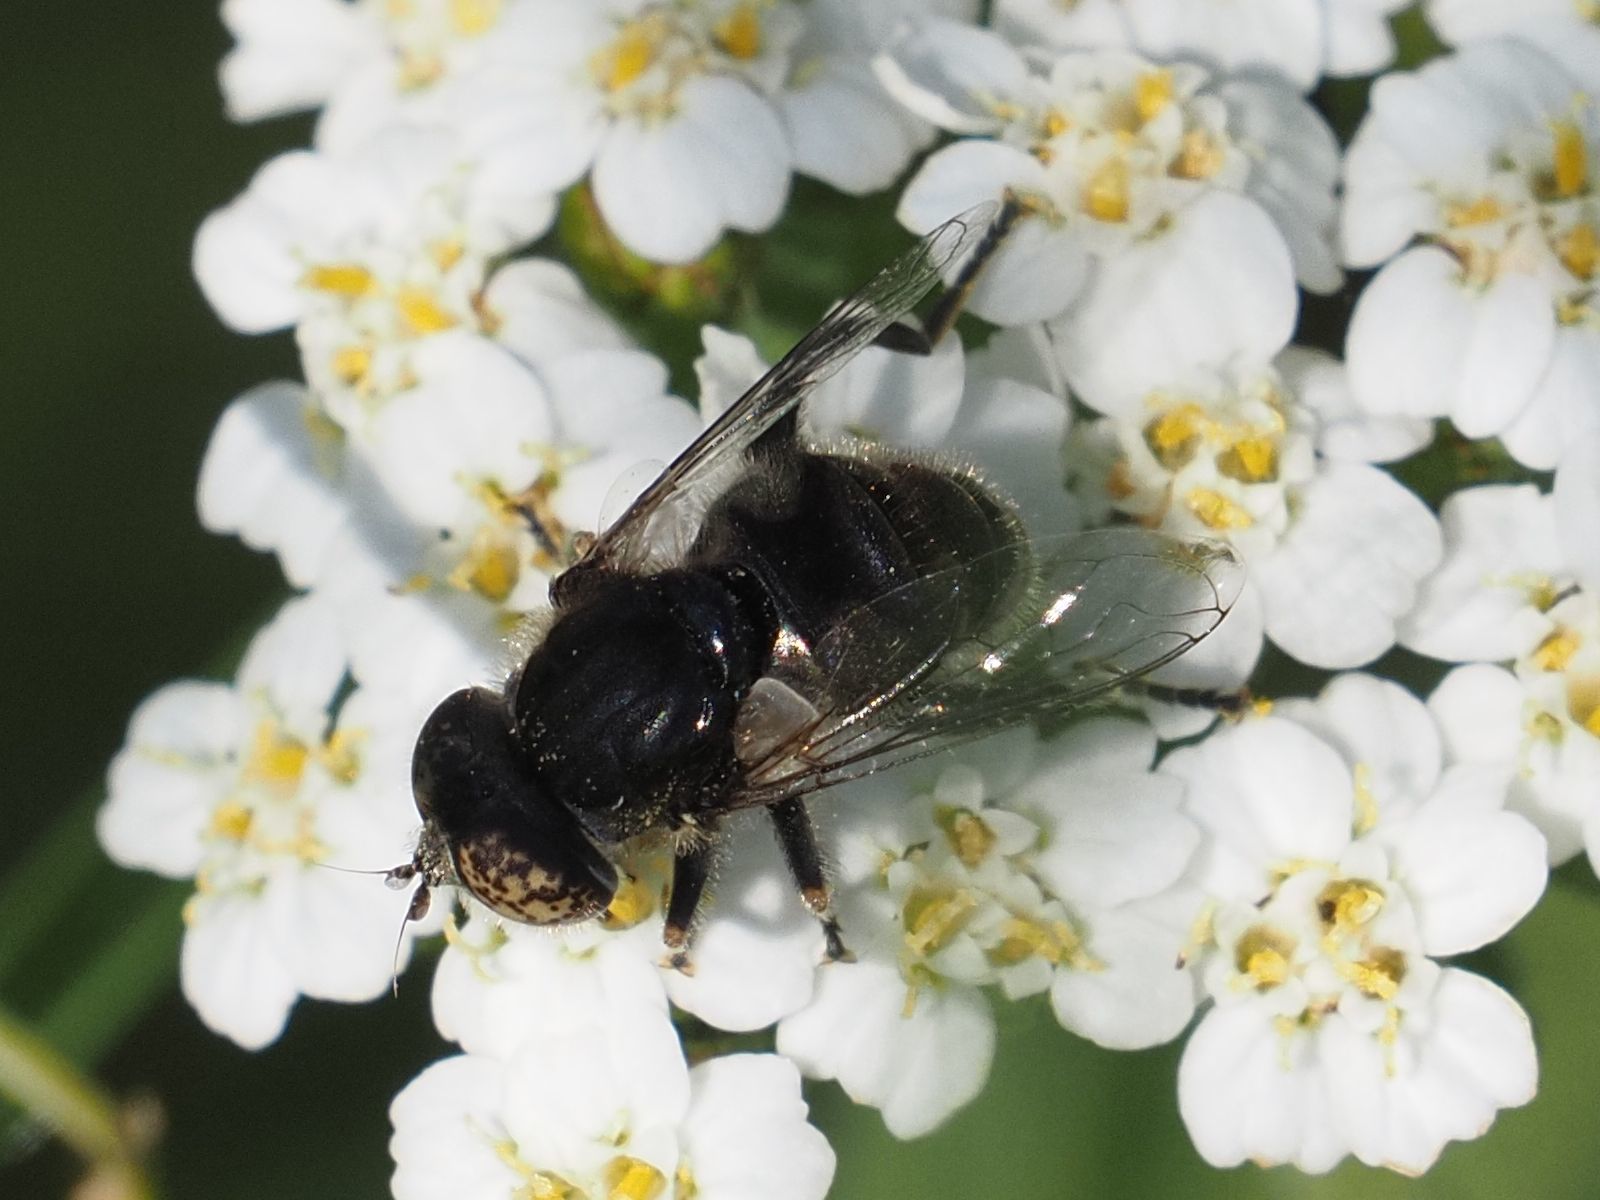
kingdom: Animalia
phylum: Arthropoda
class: Insecta
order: Diptera
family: Syrphidae
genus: Eristalinus
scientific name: Eristalinus sepulchralis
